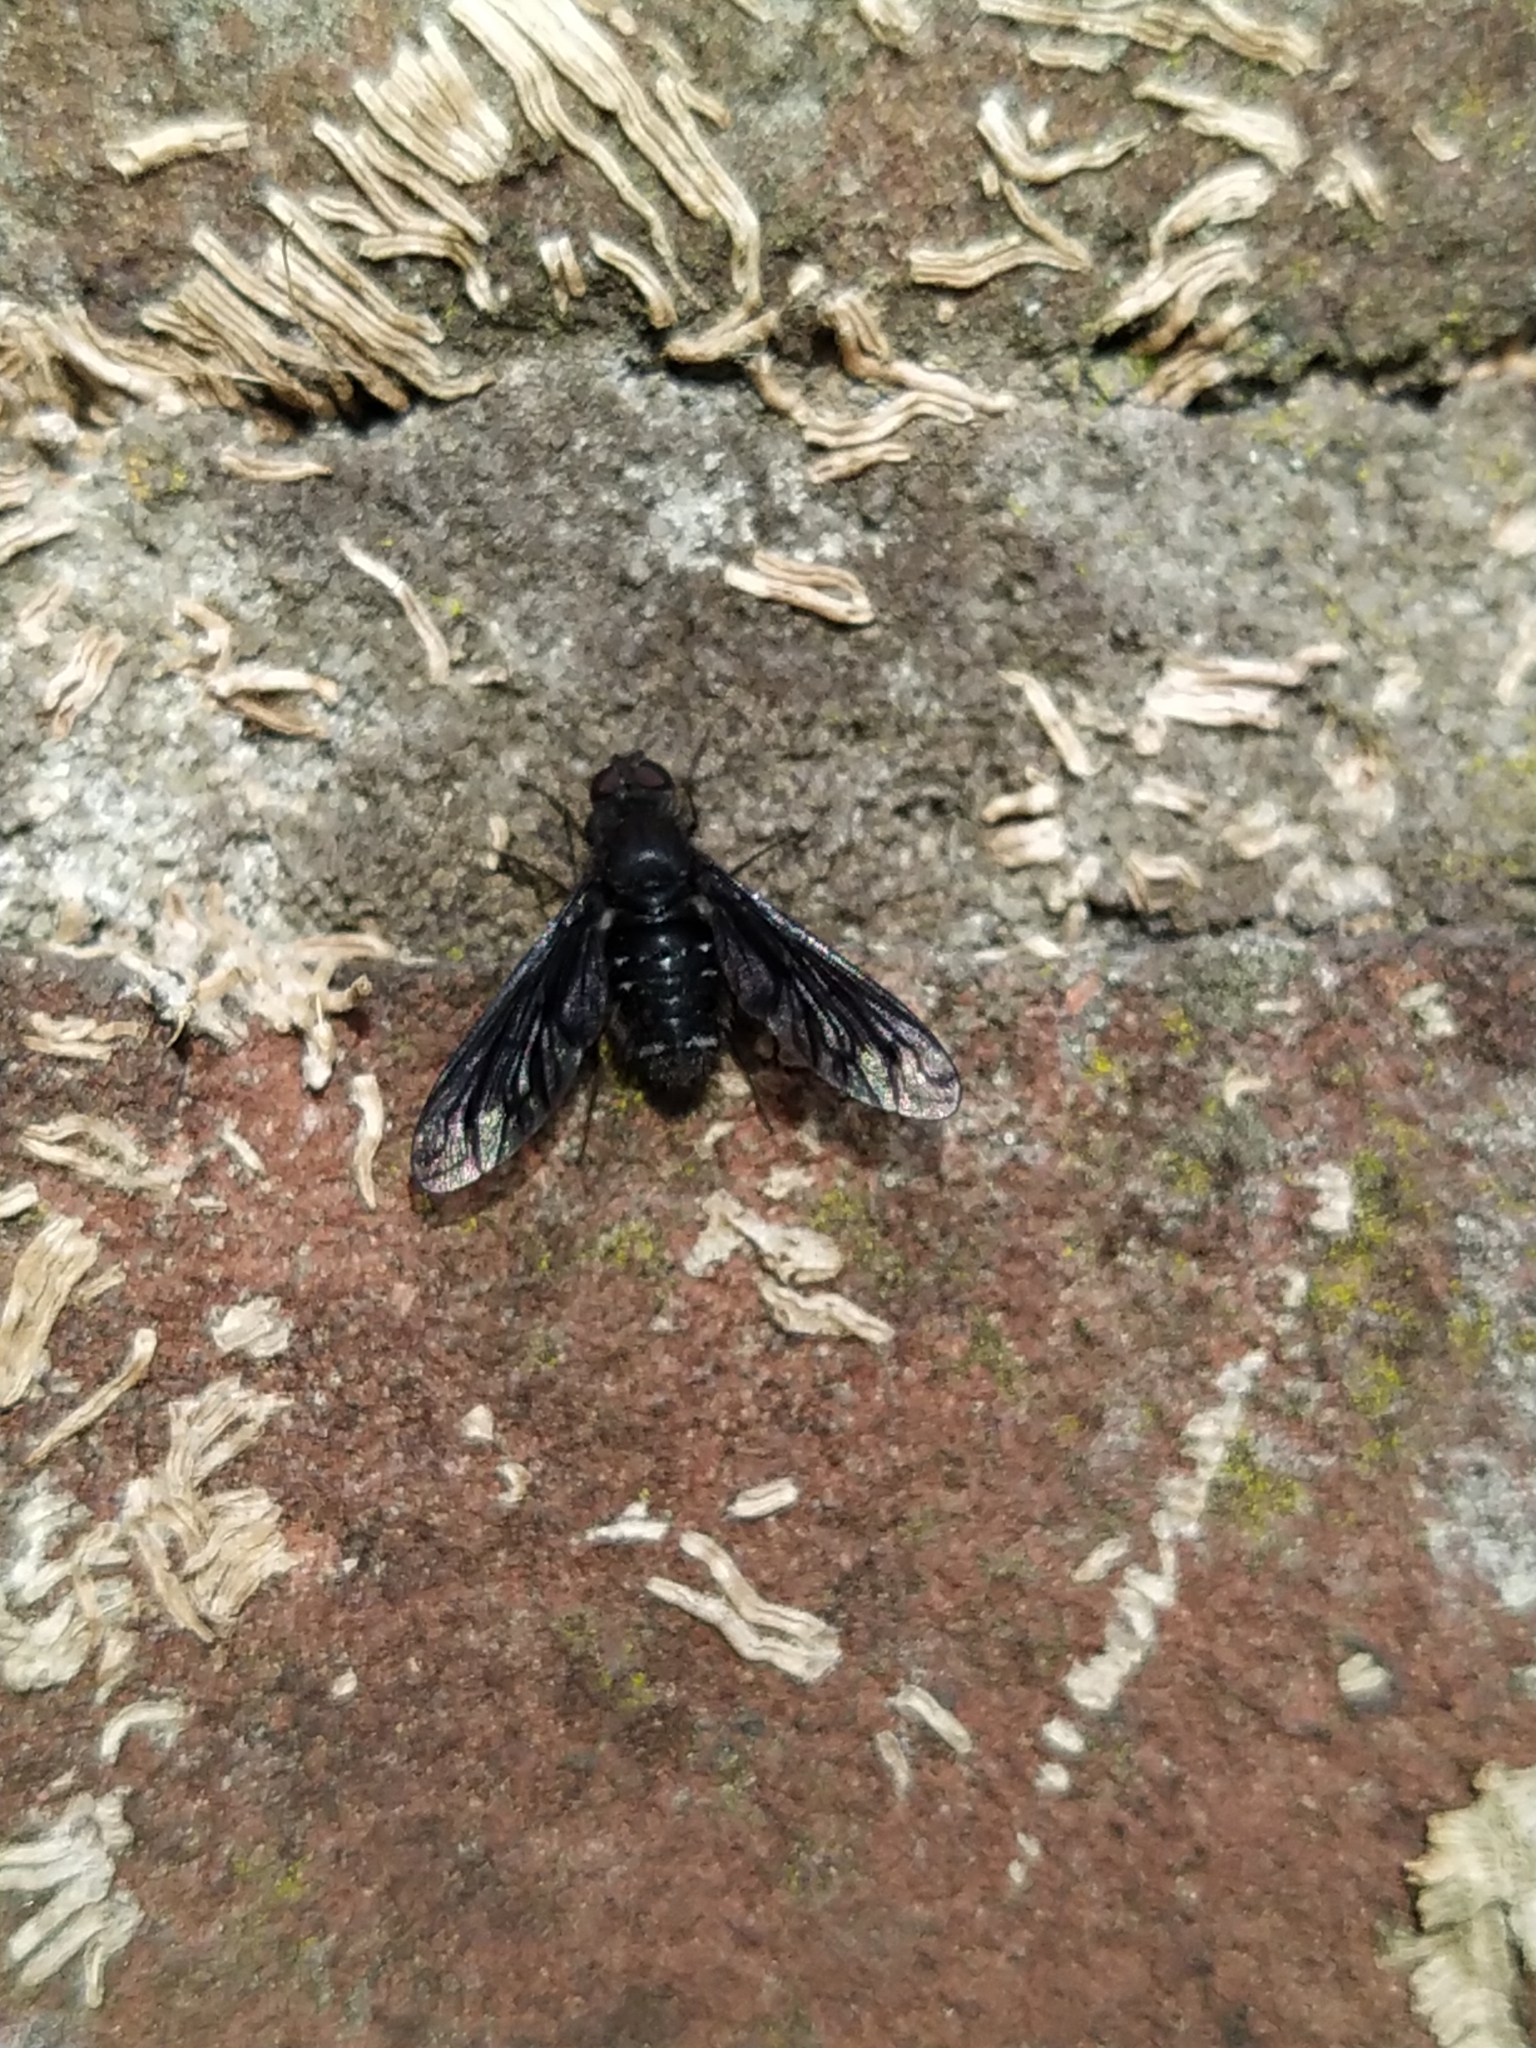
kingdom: Animalia
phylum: Arthropoda
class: Insecta
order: Diptera
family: Bombyliidae
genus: Anthrax
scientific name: Anthrax anthrax
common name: Anthracite bee-fly
